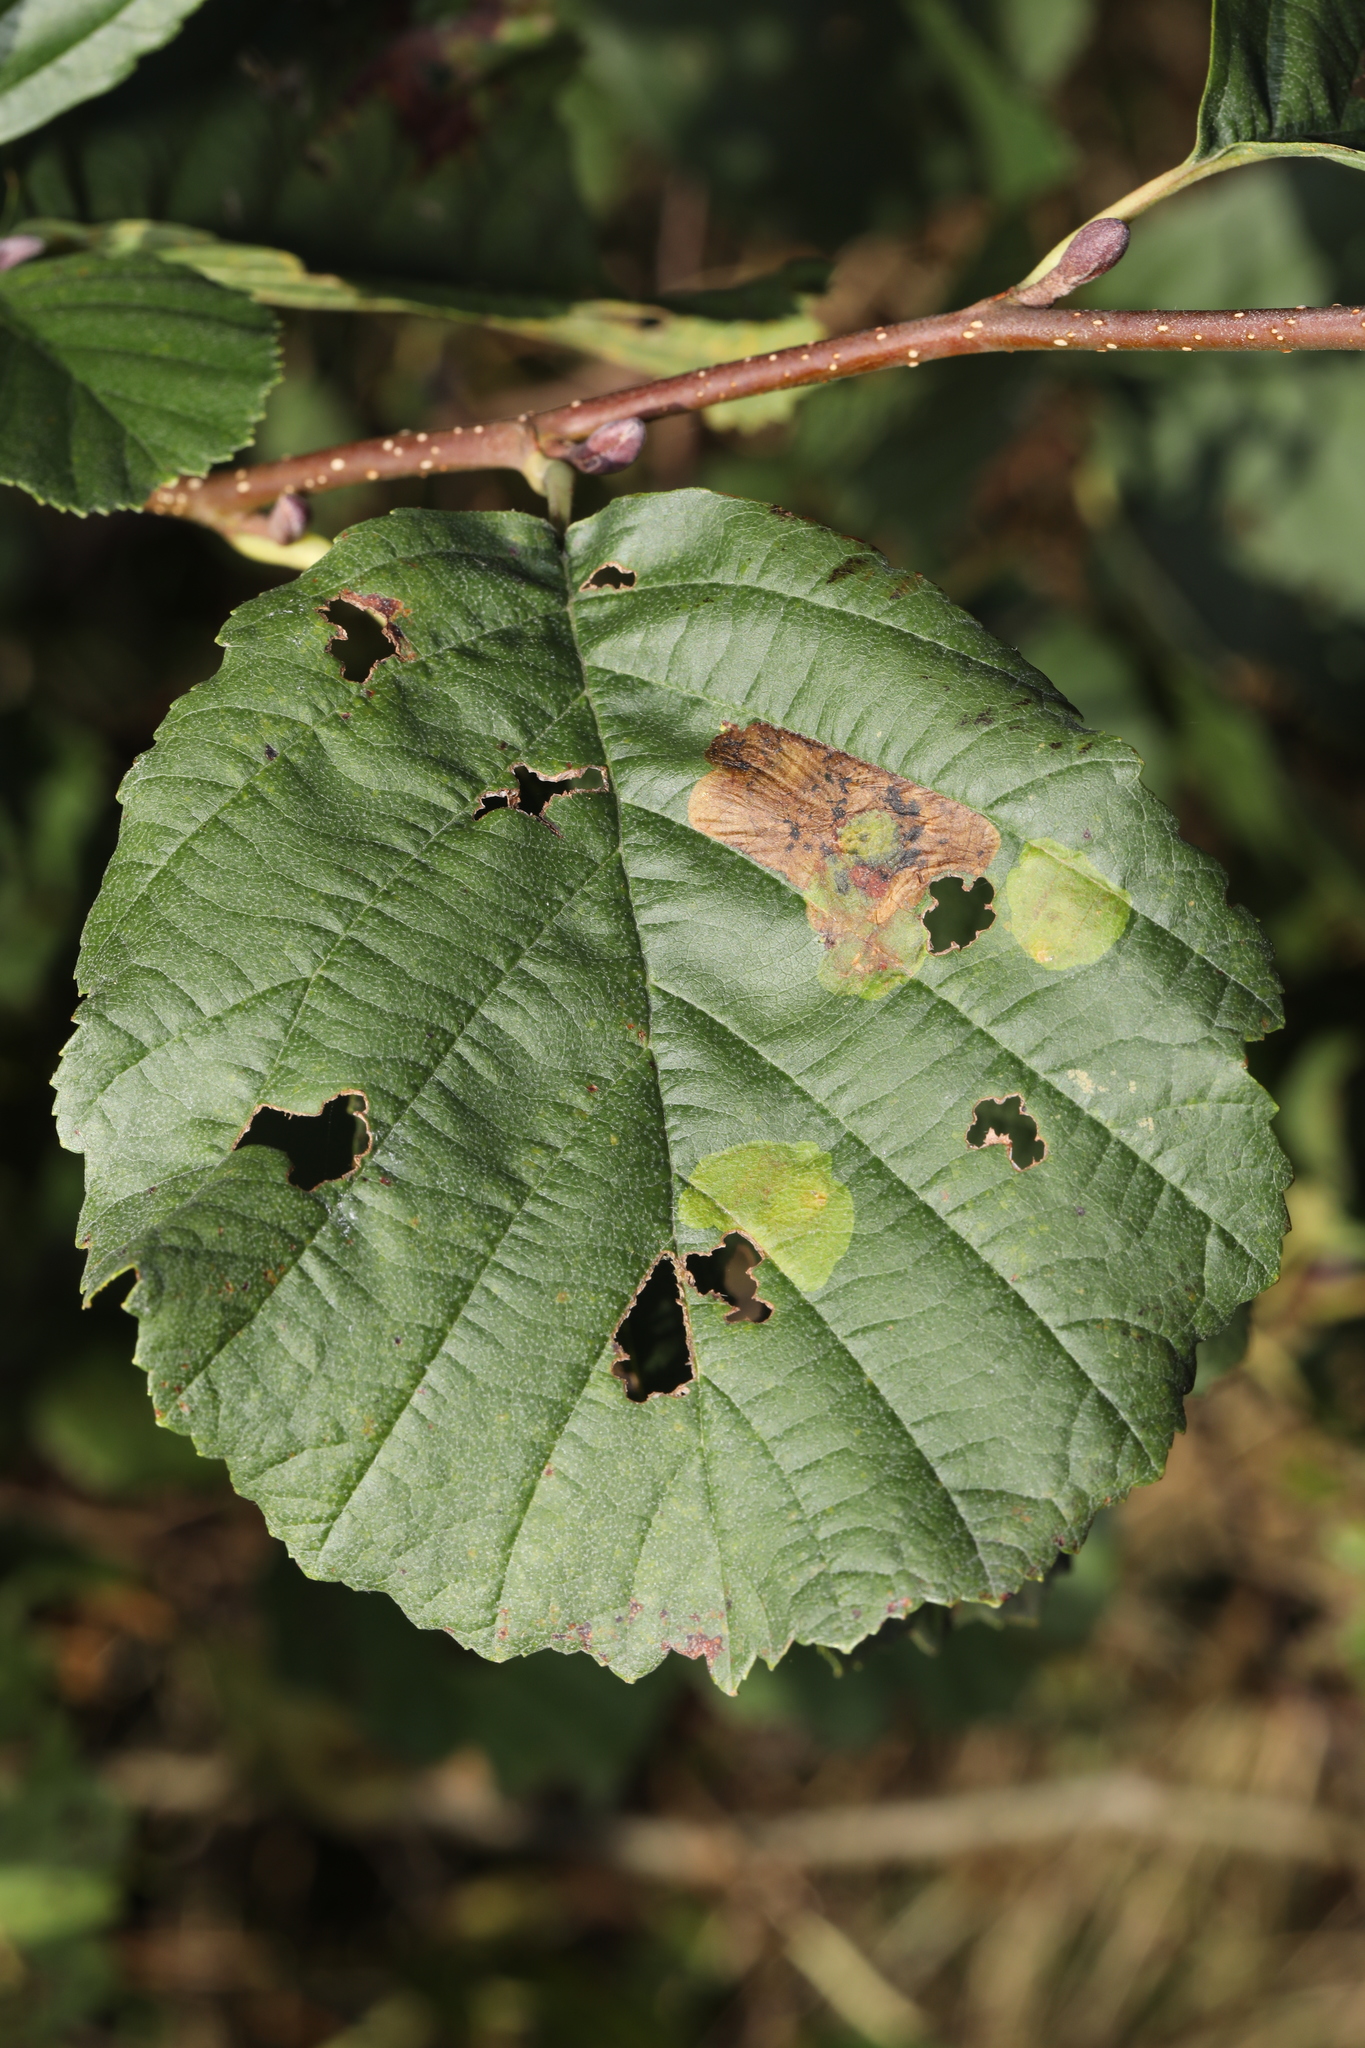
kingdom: Plantae
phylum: Tracheophyta
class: Magnoliopsida
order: Fagales
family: Betulaceae
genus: Alnus
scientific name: Alnus glutinosa
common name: Black alder
